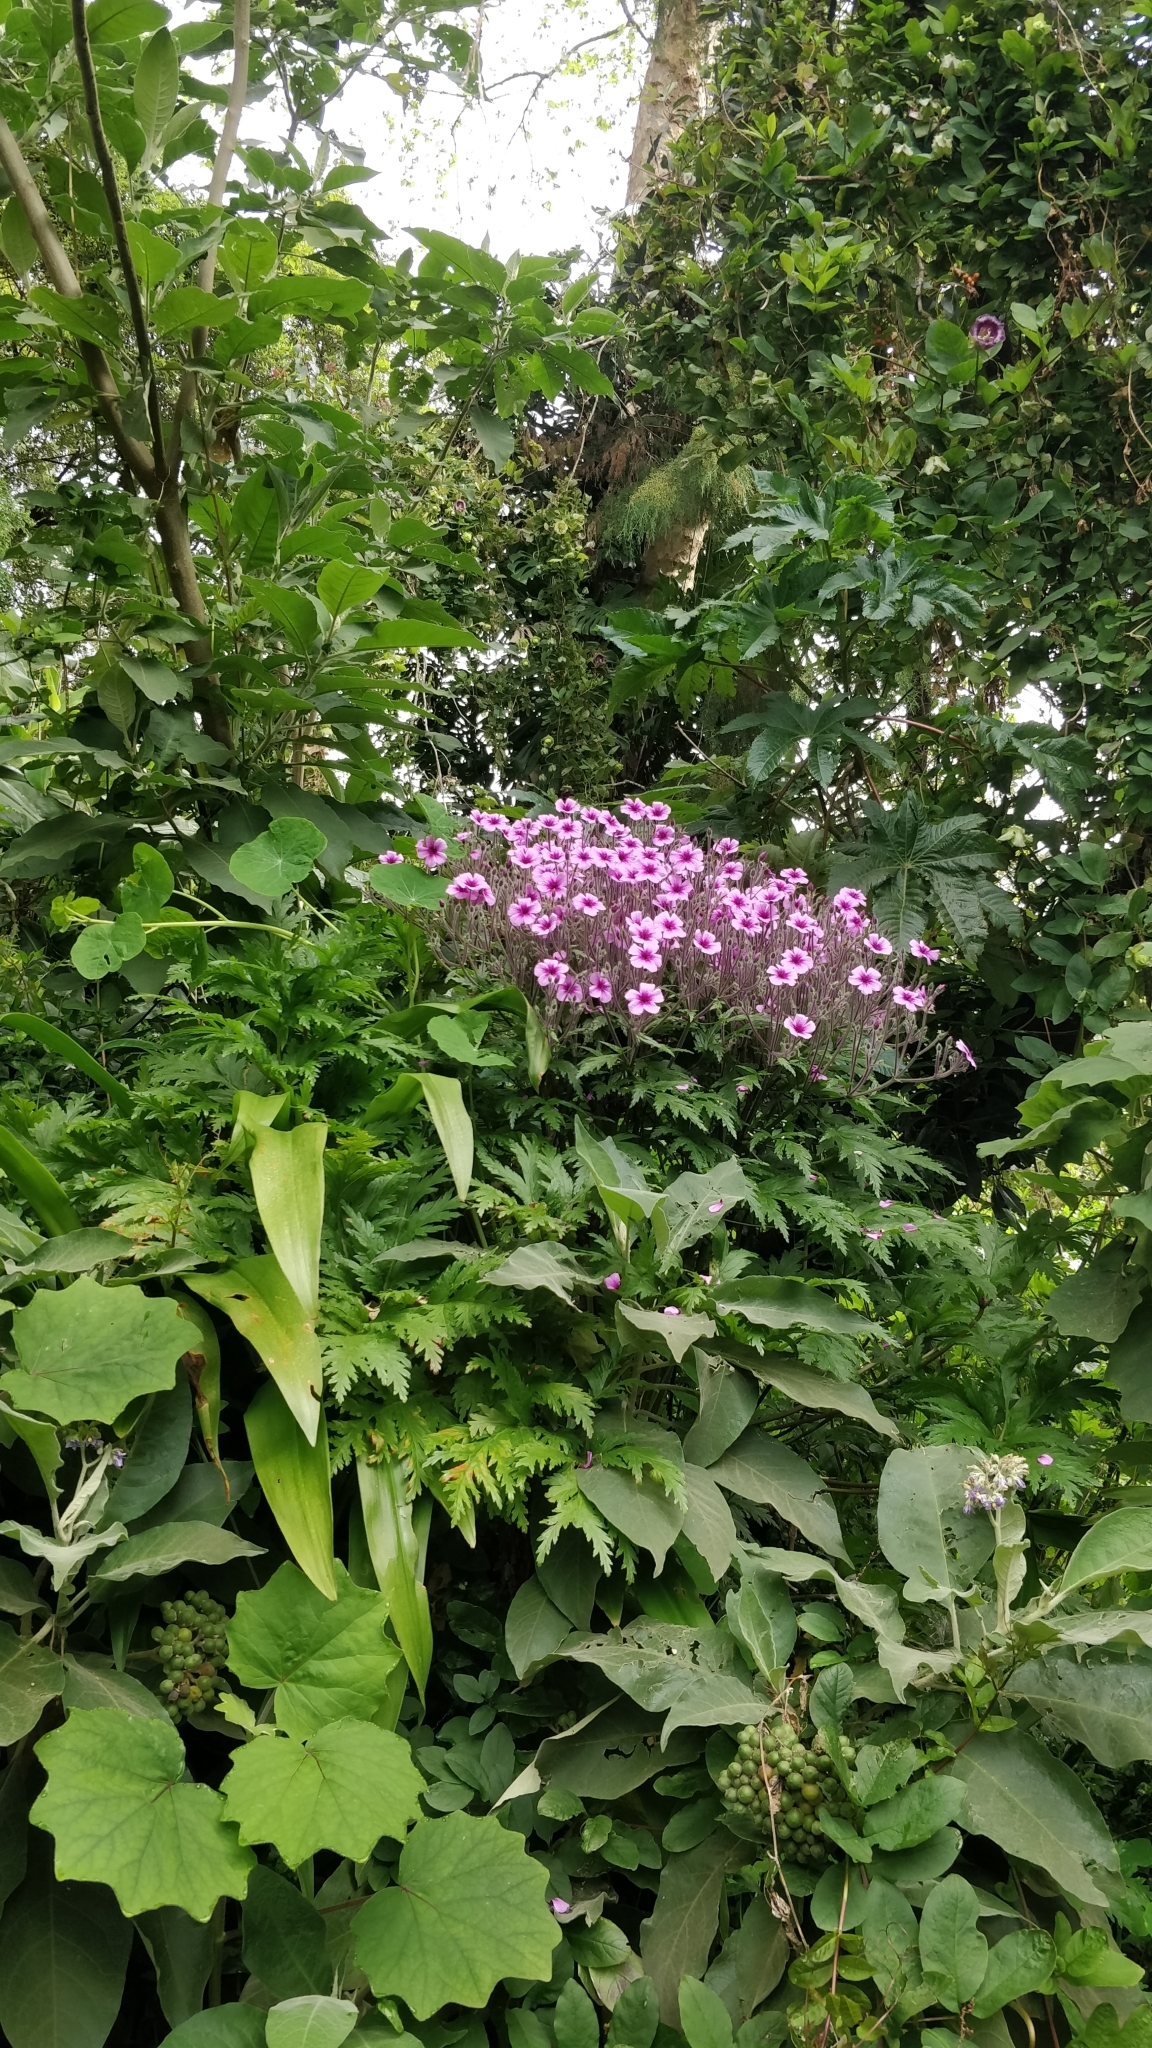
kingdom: Plantae
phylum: Tracheophyta
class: Magnoliopsida
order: Geraniales
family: Geraniaceae
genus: Geranium
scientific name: Geranium maderense
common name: Giant herb-robert
